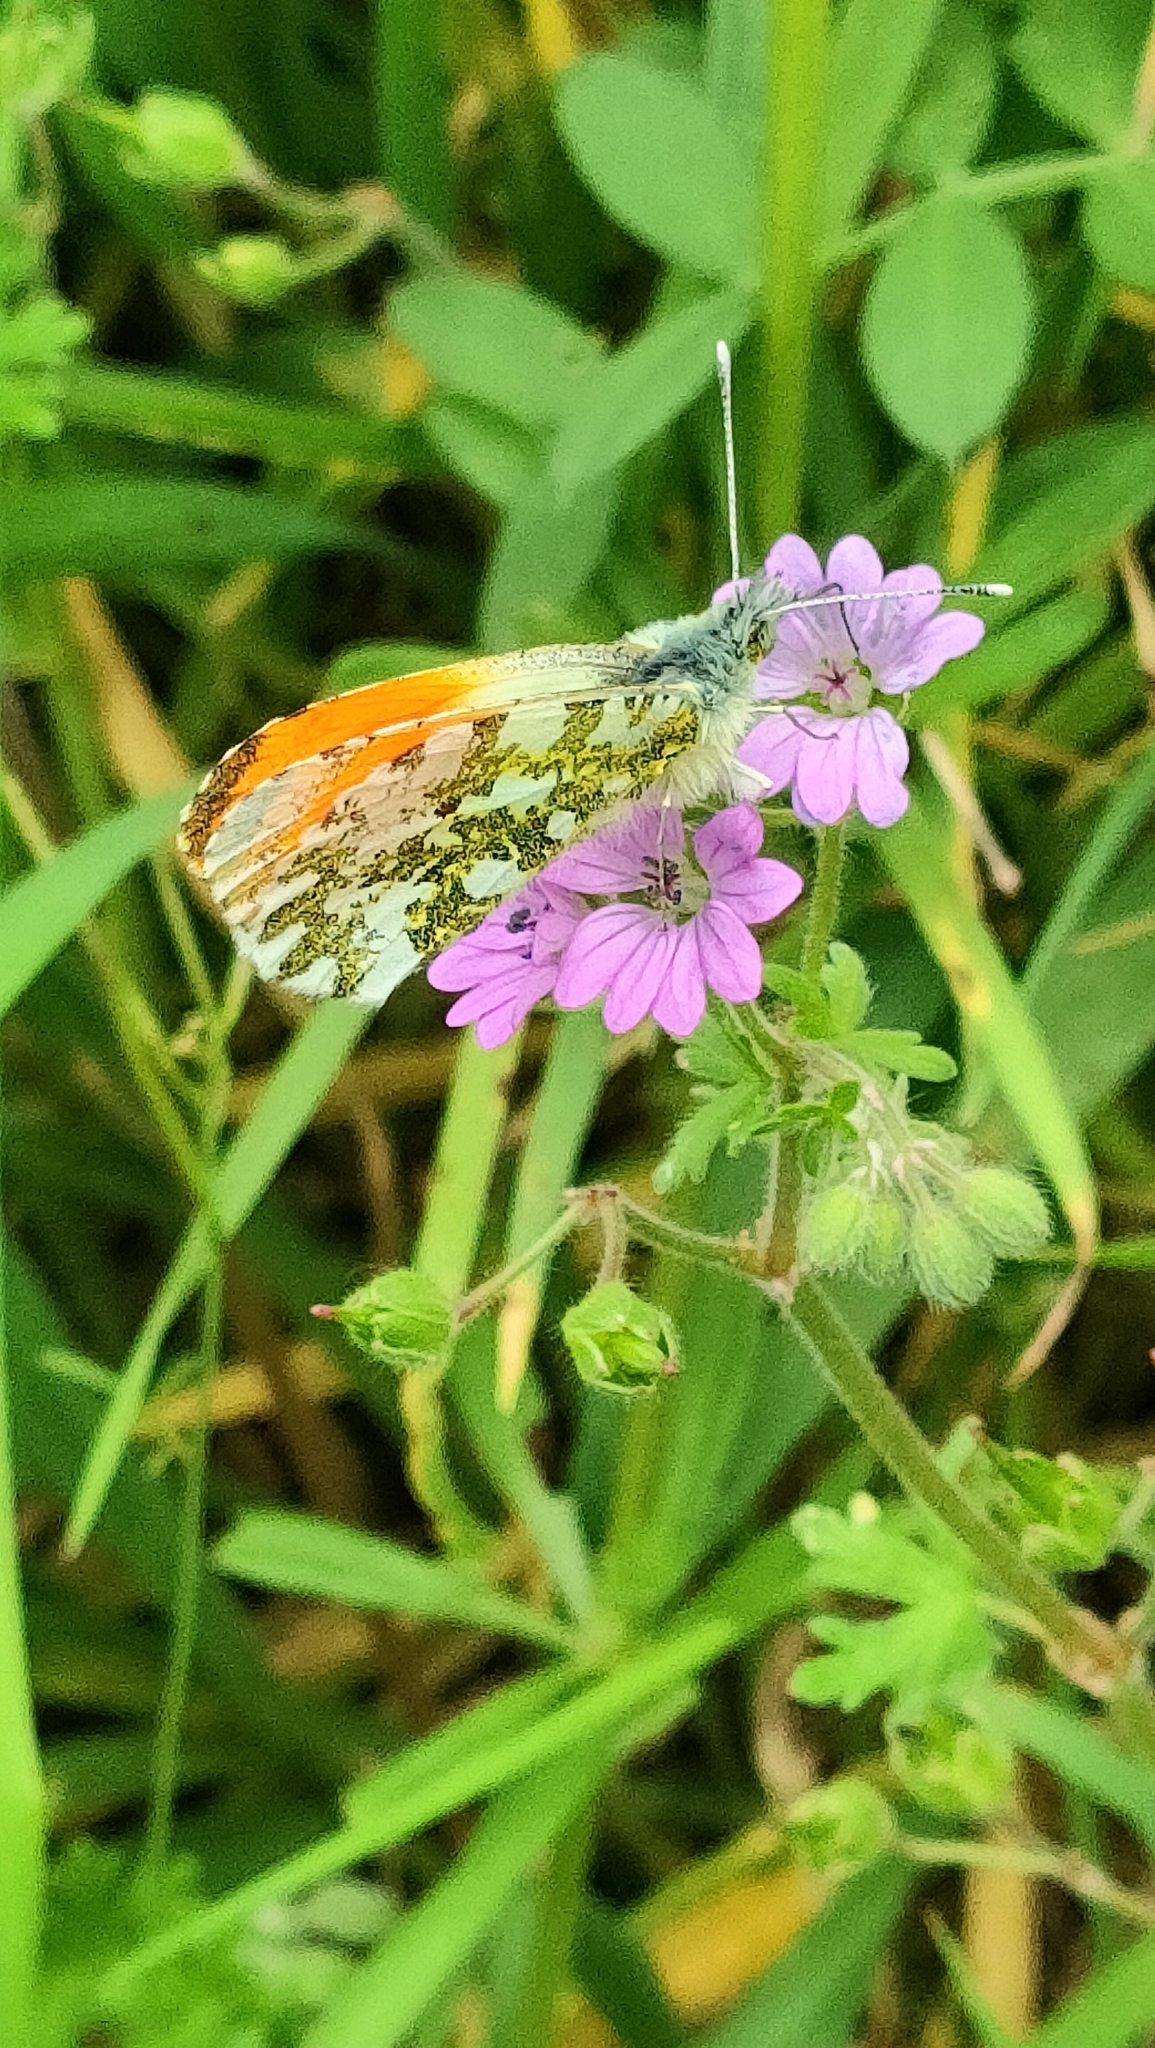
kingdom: Animalia
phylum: Arthropoda
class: Insecta
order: Lepidoptera
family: Pieridae
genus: Anthocharis
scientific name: Anthocharis cardamines
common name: Orange-tip
